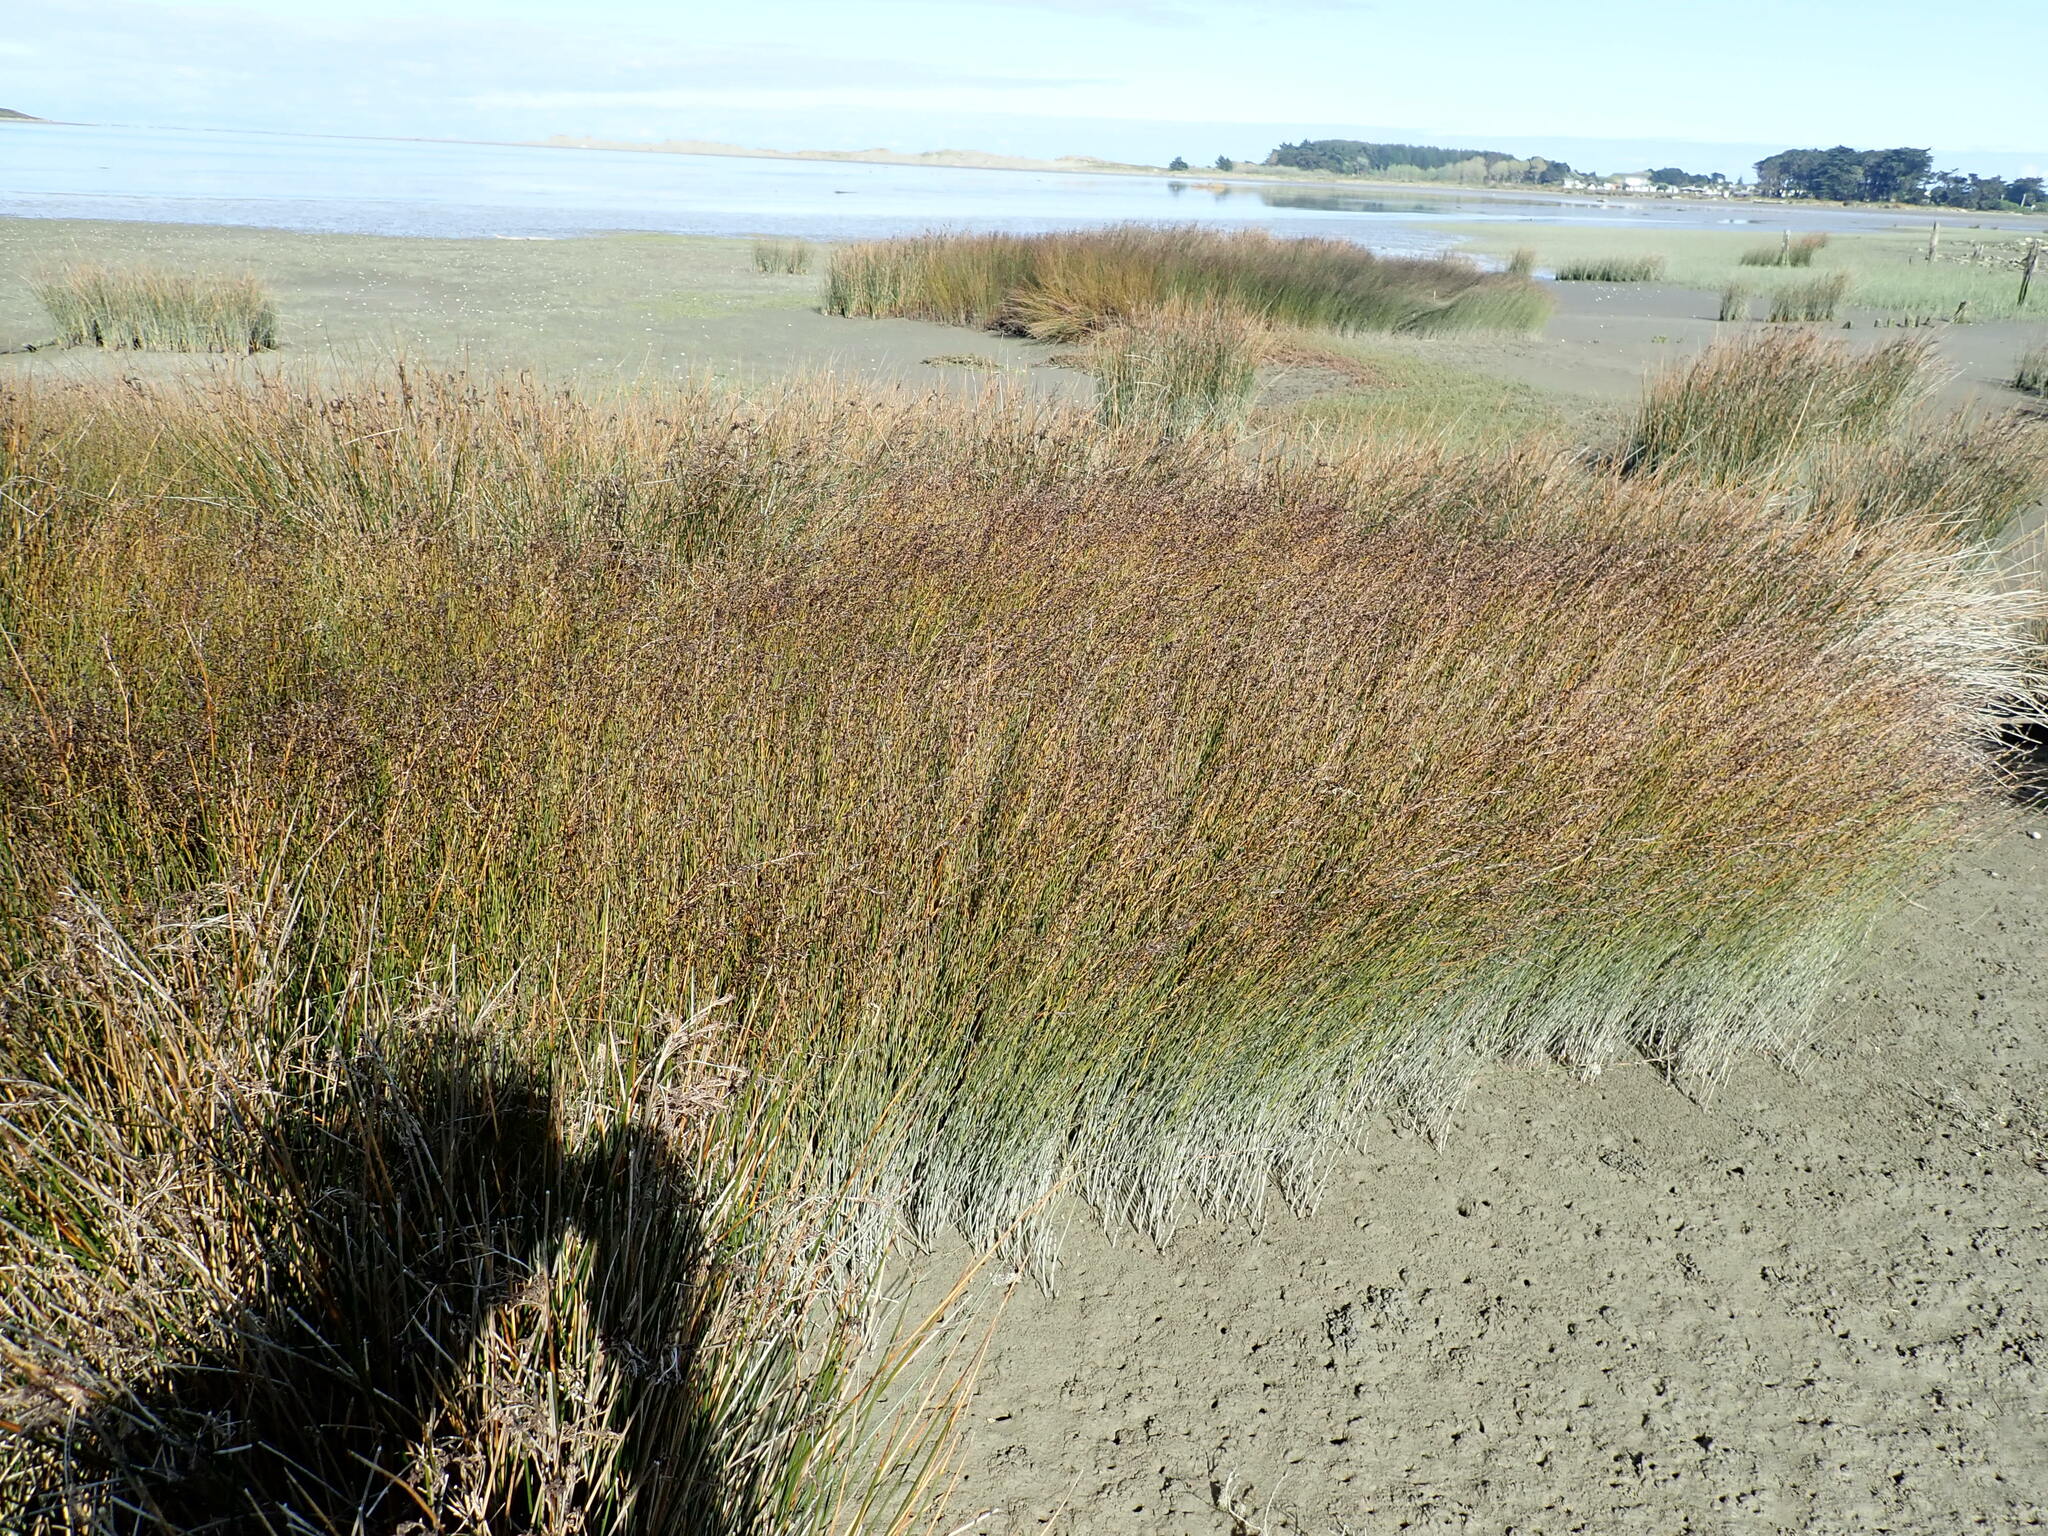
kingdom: Plantae
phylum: Tracheophyta
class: Liliopsida
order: Poales
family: Restionaceae
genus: Apodasmia
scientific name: Apodasmia similis
